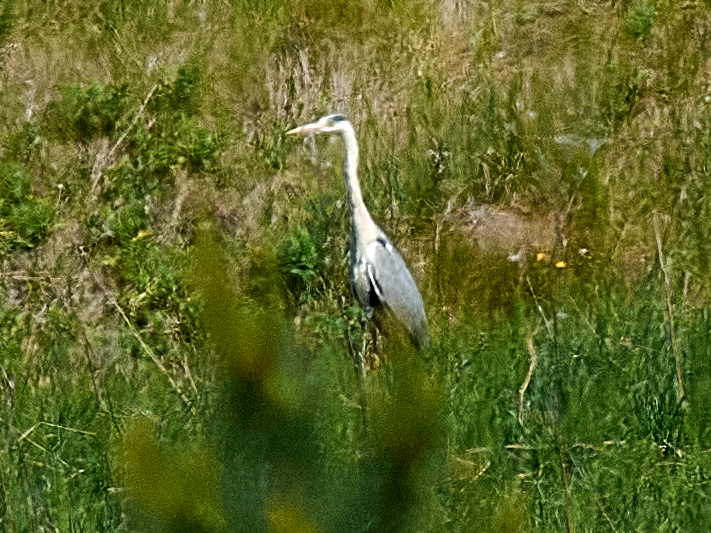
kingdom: Animalia
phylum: Chordata
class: Aves
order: Pelecaniformes
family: Ardeidae
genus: Ardea
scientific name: Ardea cinerea
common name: Grey heron
